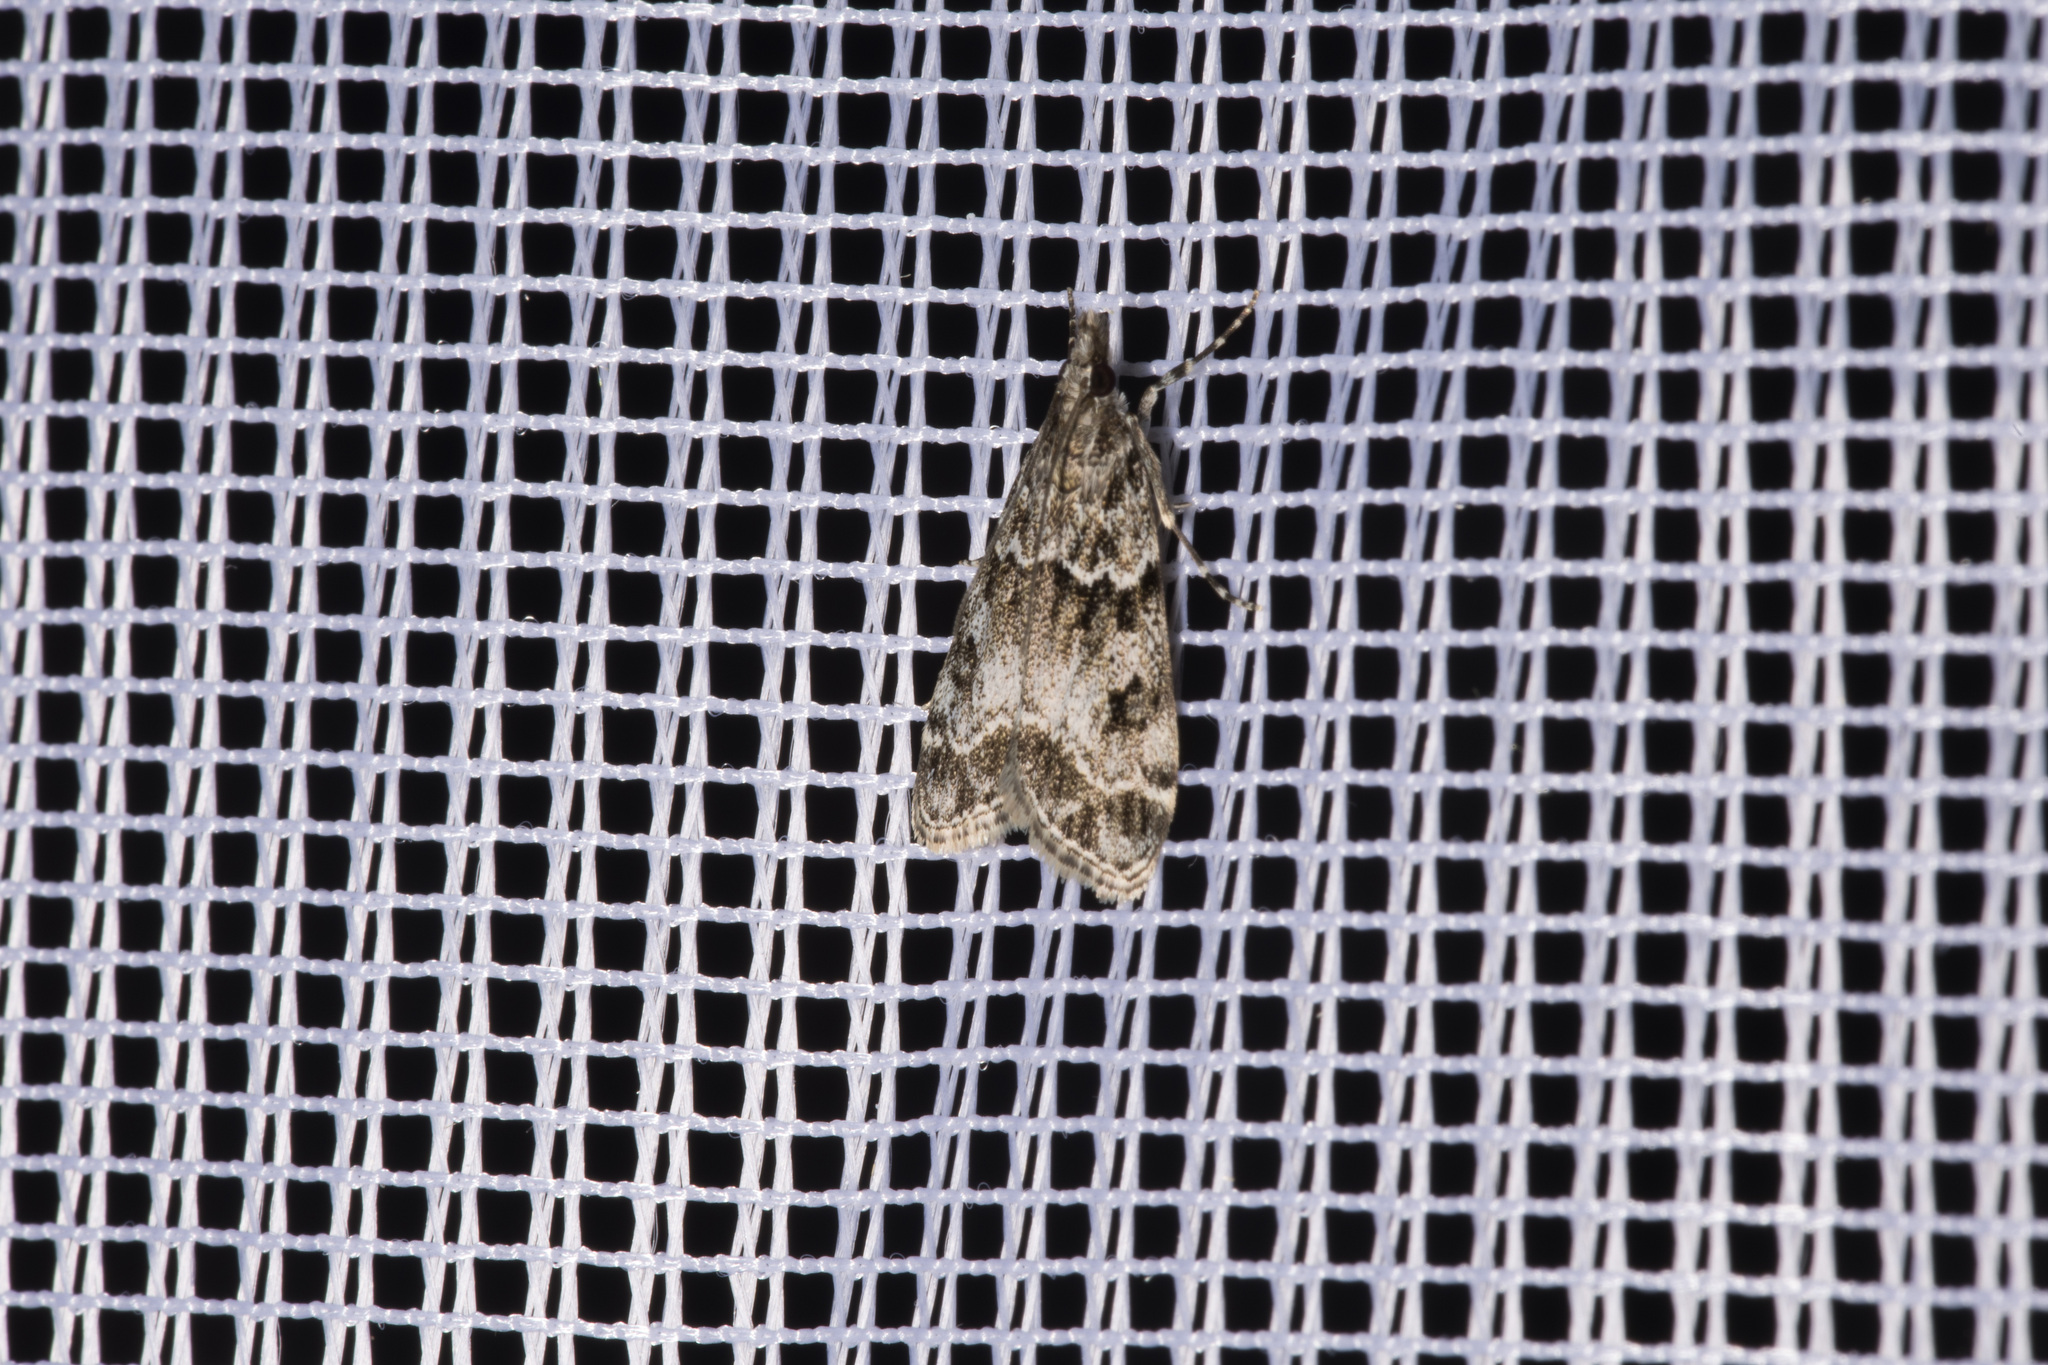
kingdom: Animalia
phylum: Arthropoda
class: Insecta
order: Lepidoptera
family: Crambidae
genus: Eudonia
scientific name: Eudonia mercurella
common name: Small grey
